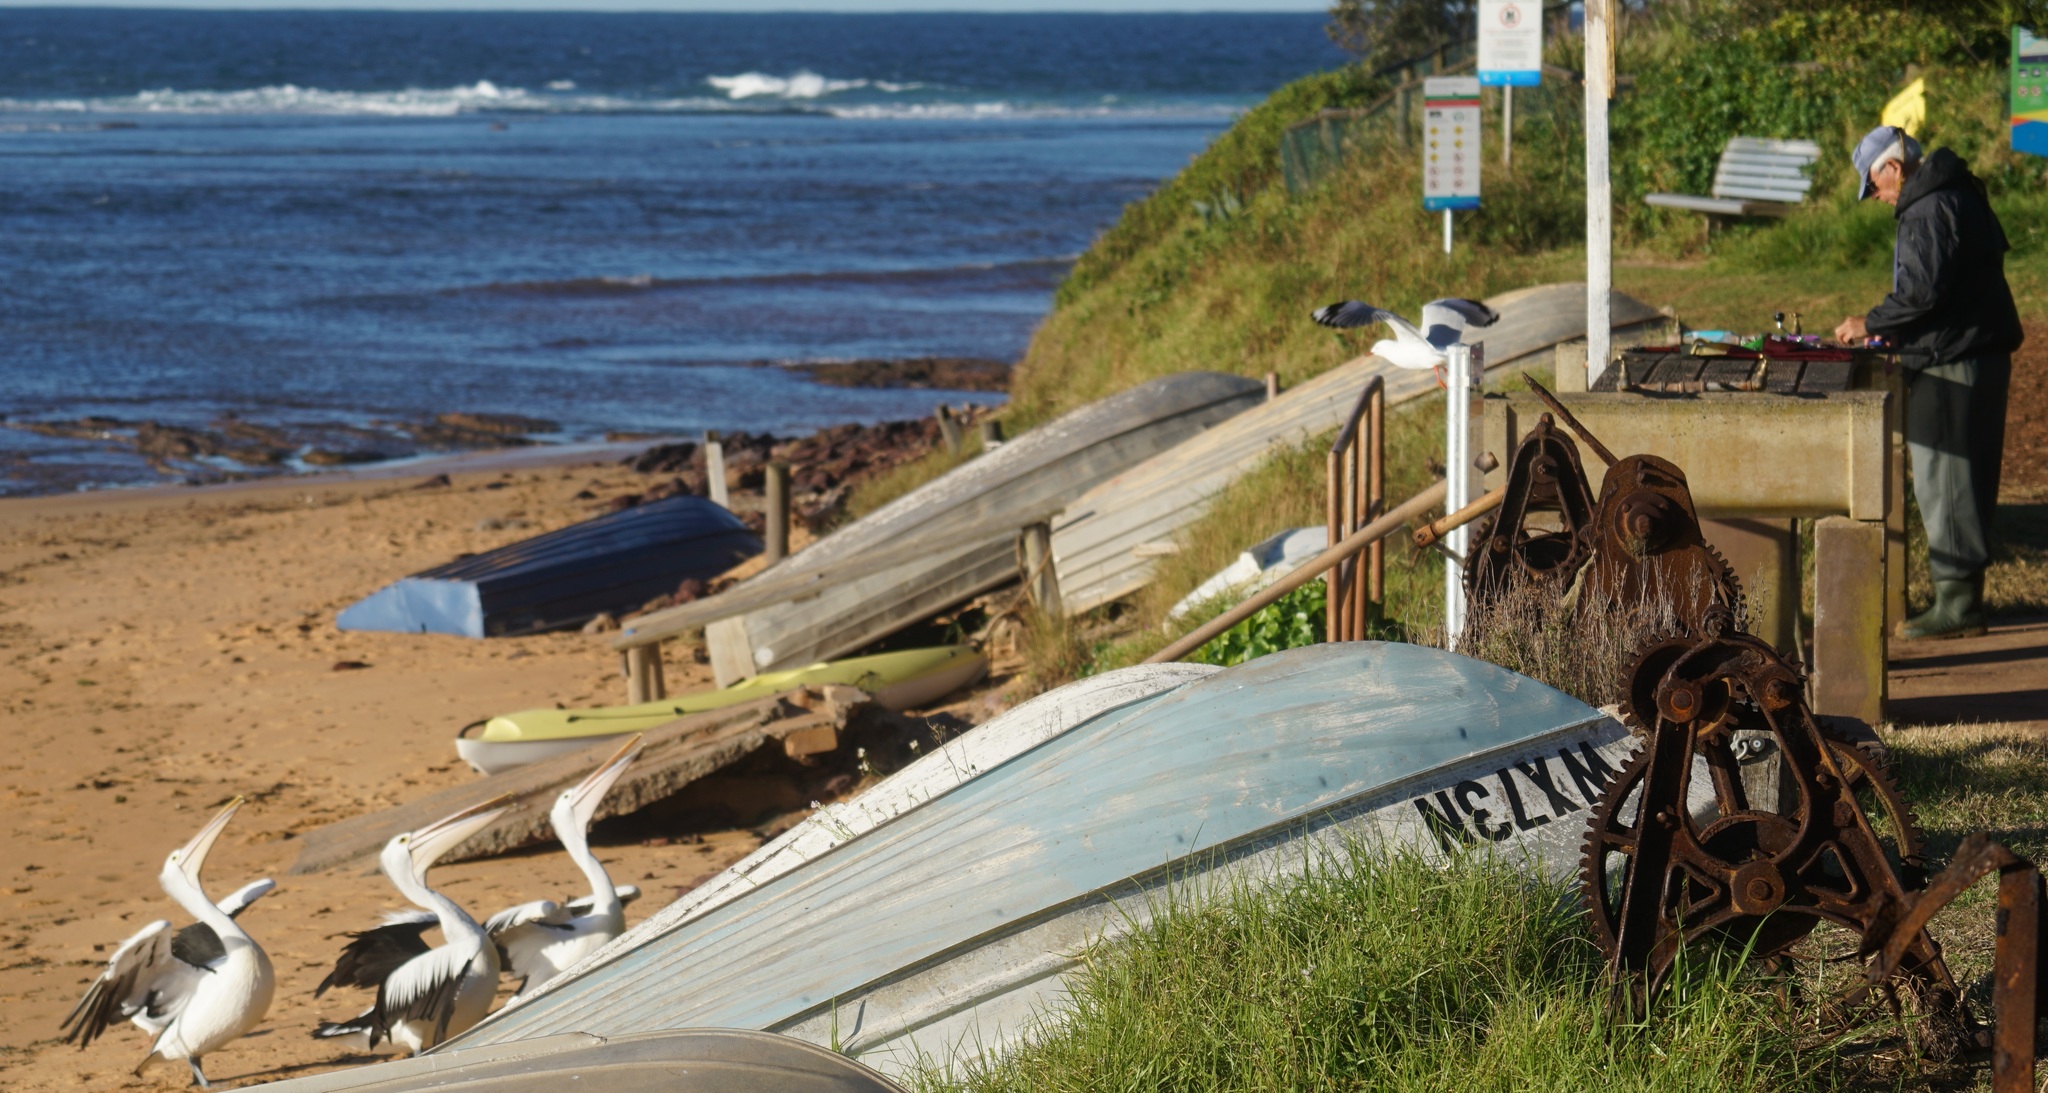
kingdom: Animalia
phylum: Chordata
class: Aves
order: Pelecaniformes
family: Pelecanidae
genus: Pelecanus
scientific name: Pelecanus conspicillatus
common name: Australian pelican
